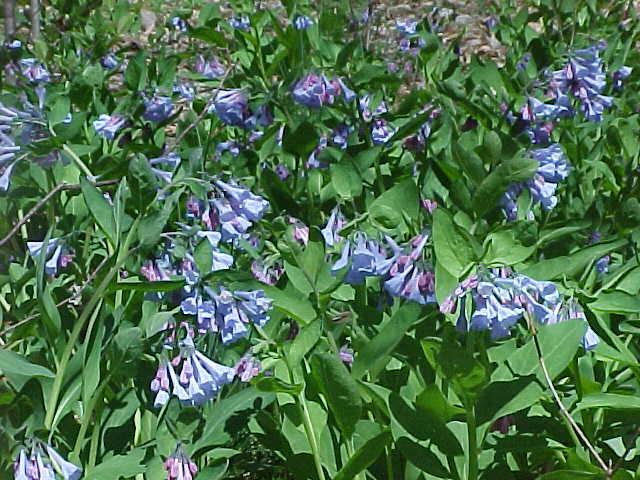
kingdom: Plantae
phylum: Tracheophyta
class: Magnoliopsida
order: Boraginales
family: Boraginaceae
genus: Mertensia
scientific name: Mertensia virginica
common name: Virginia bluebells
